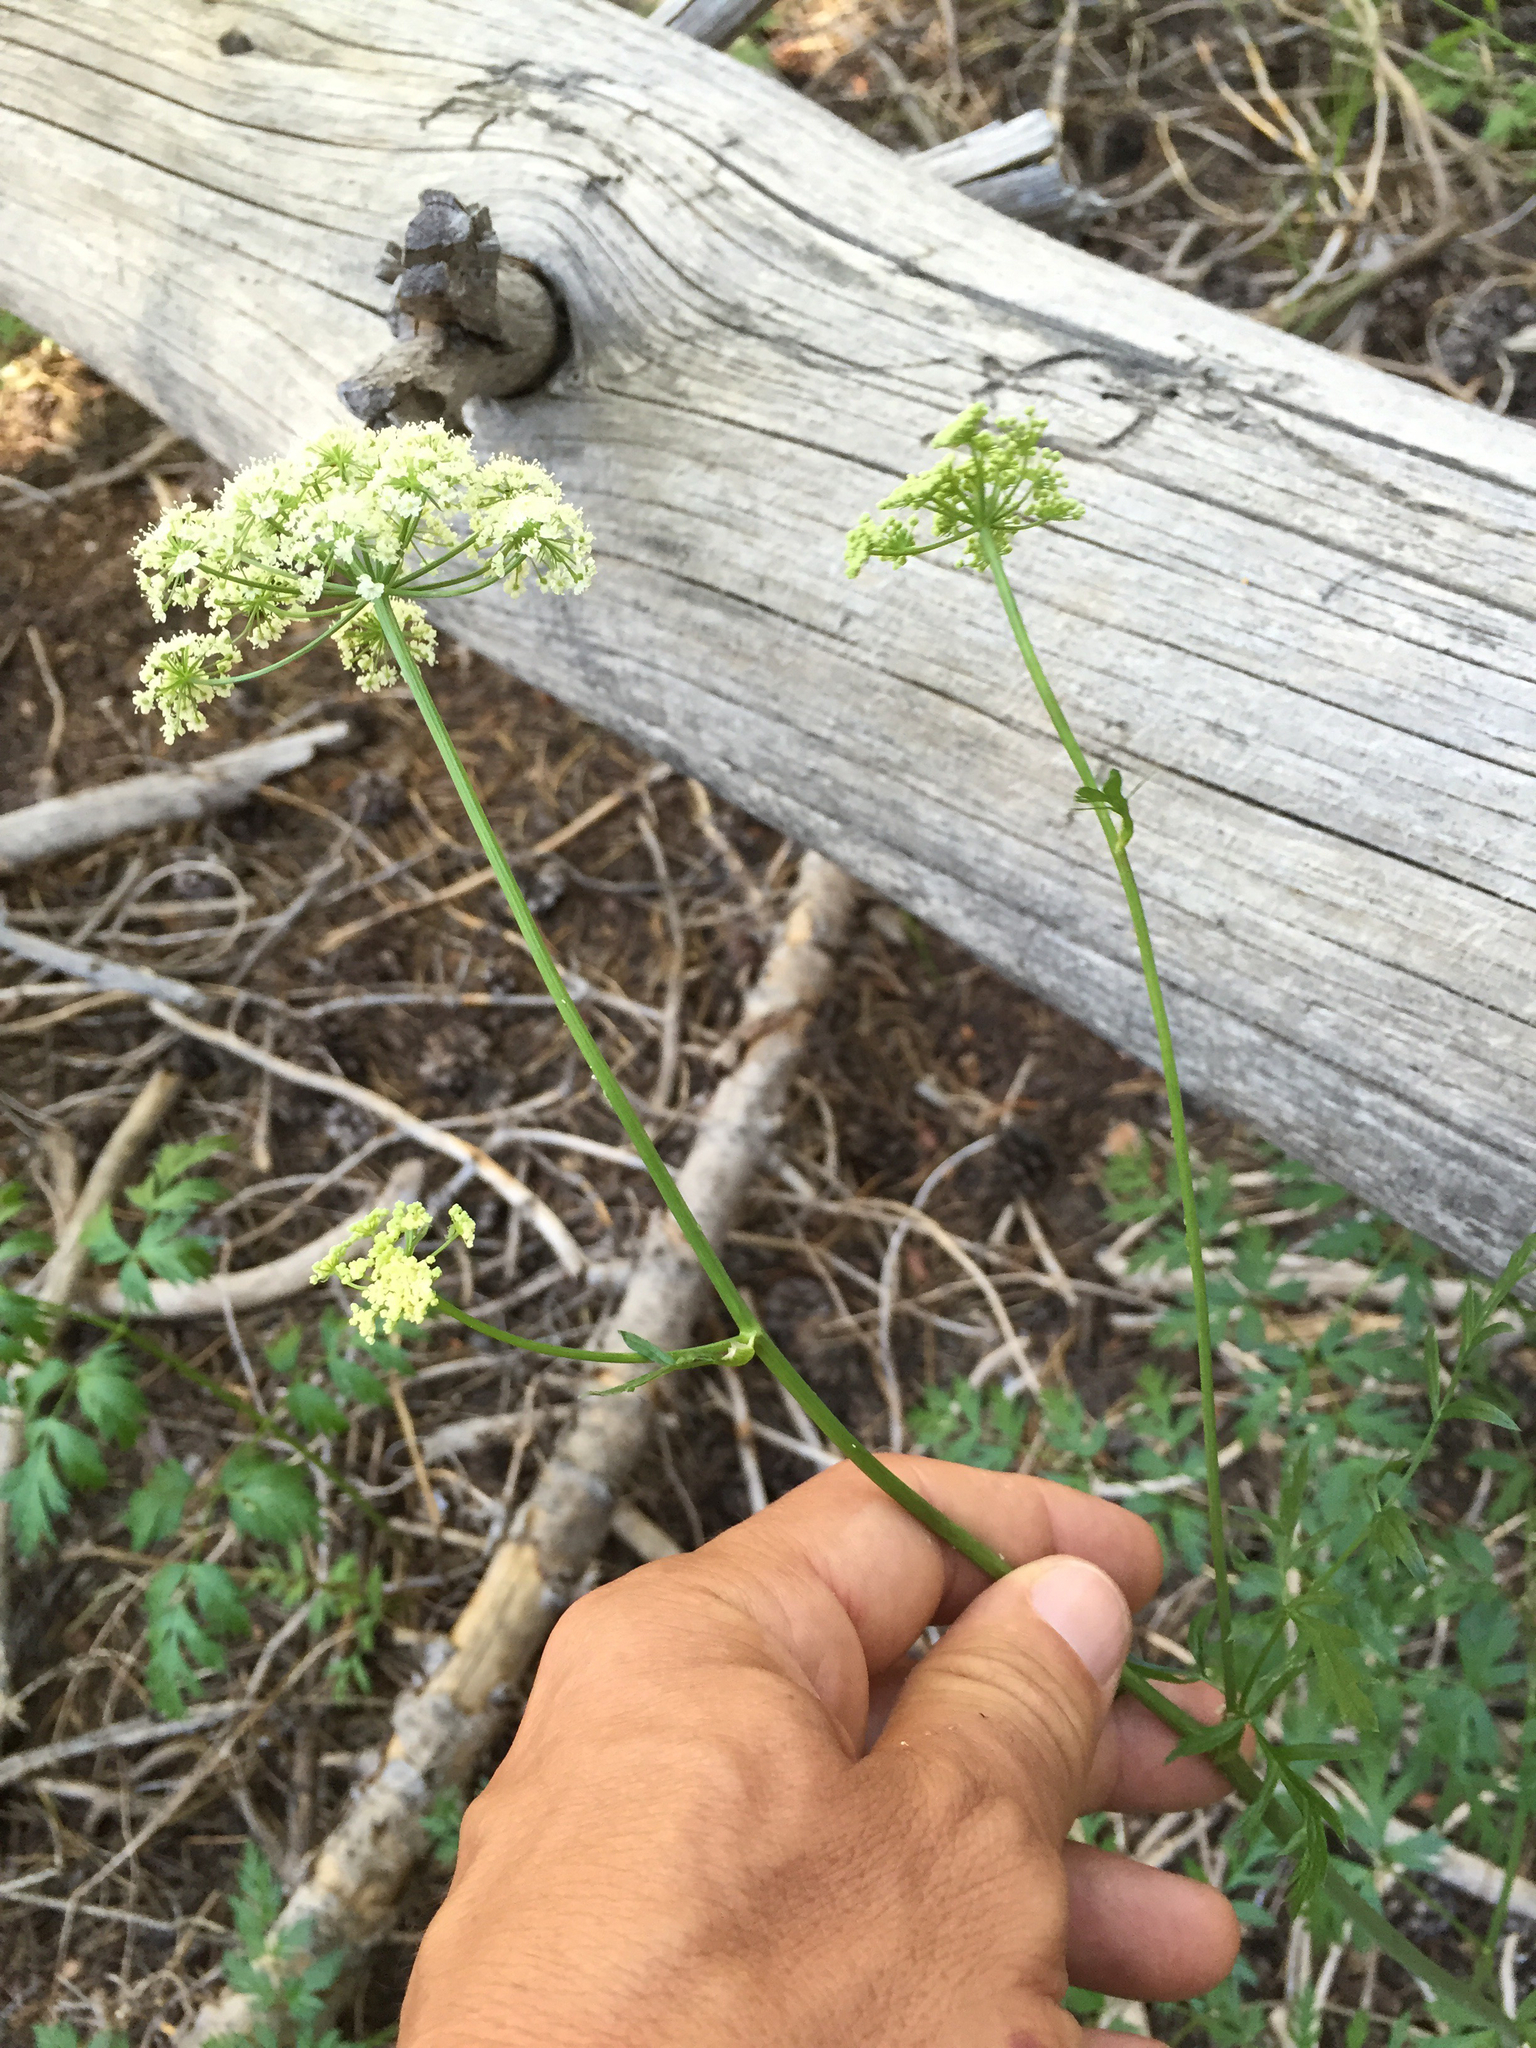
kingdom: Plantae
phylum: Tracheophyta
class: Magnoliopsida
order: Apiales
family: Apiaceae
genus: Ligusticum
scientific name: Ligusticum grayi
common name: Gray's licorice-root
